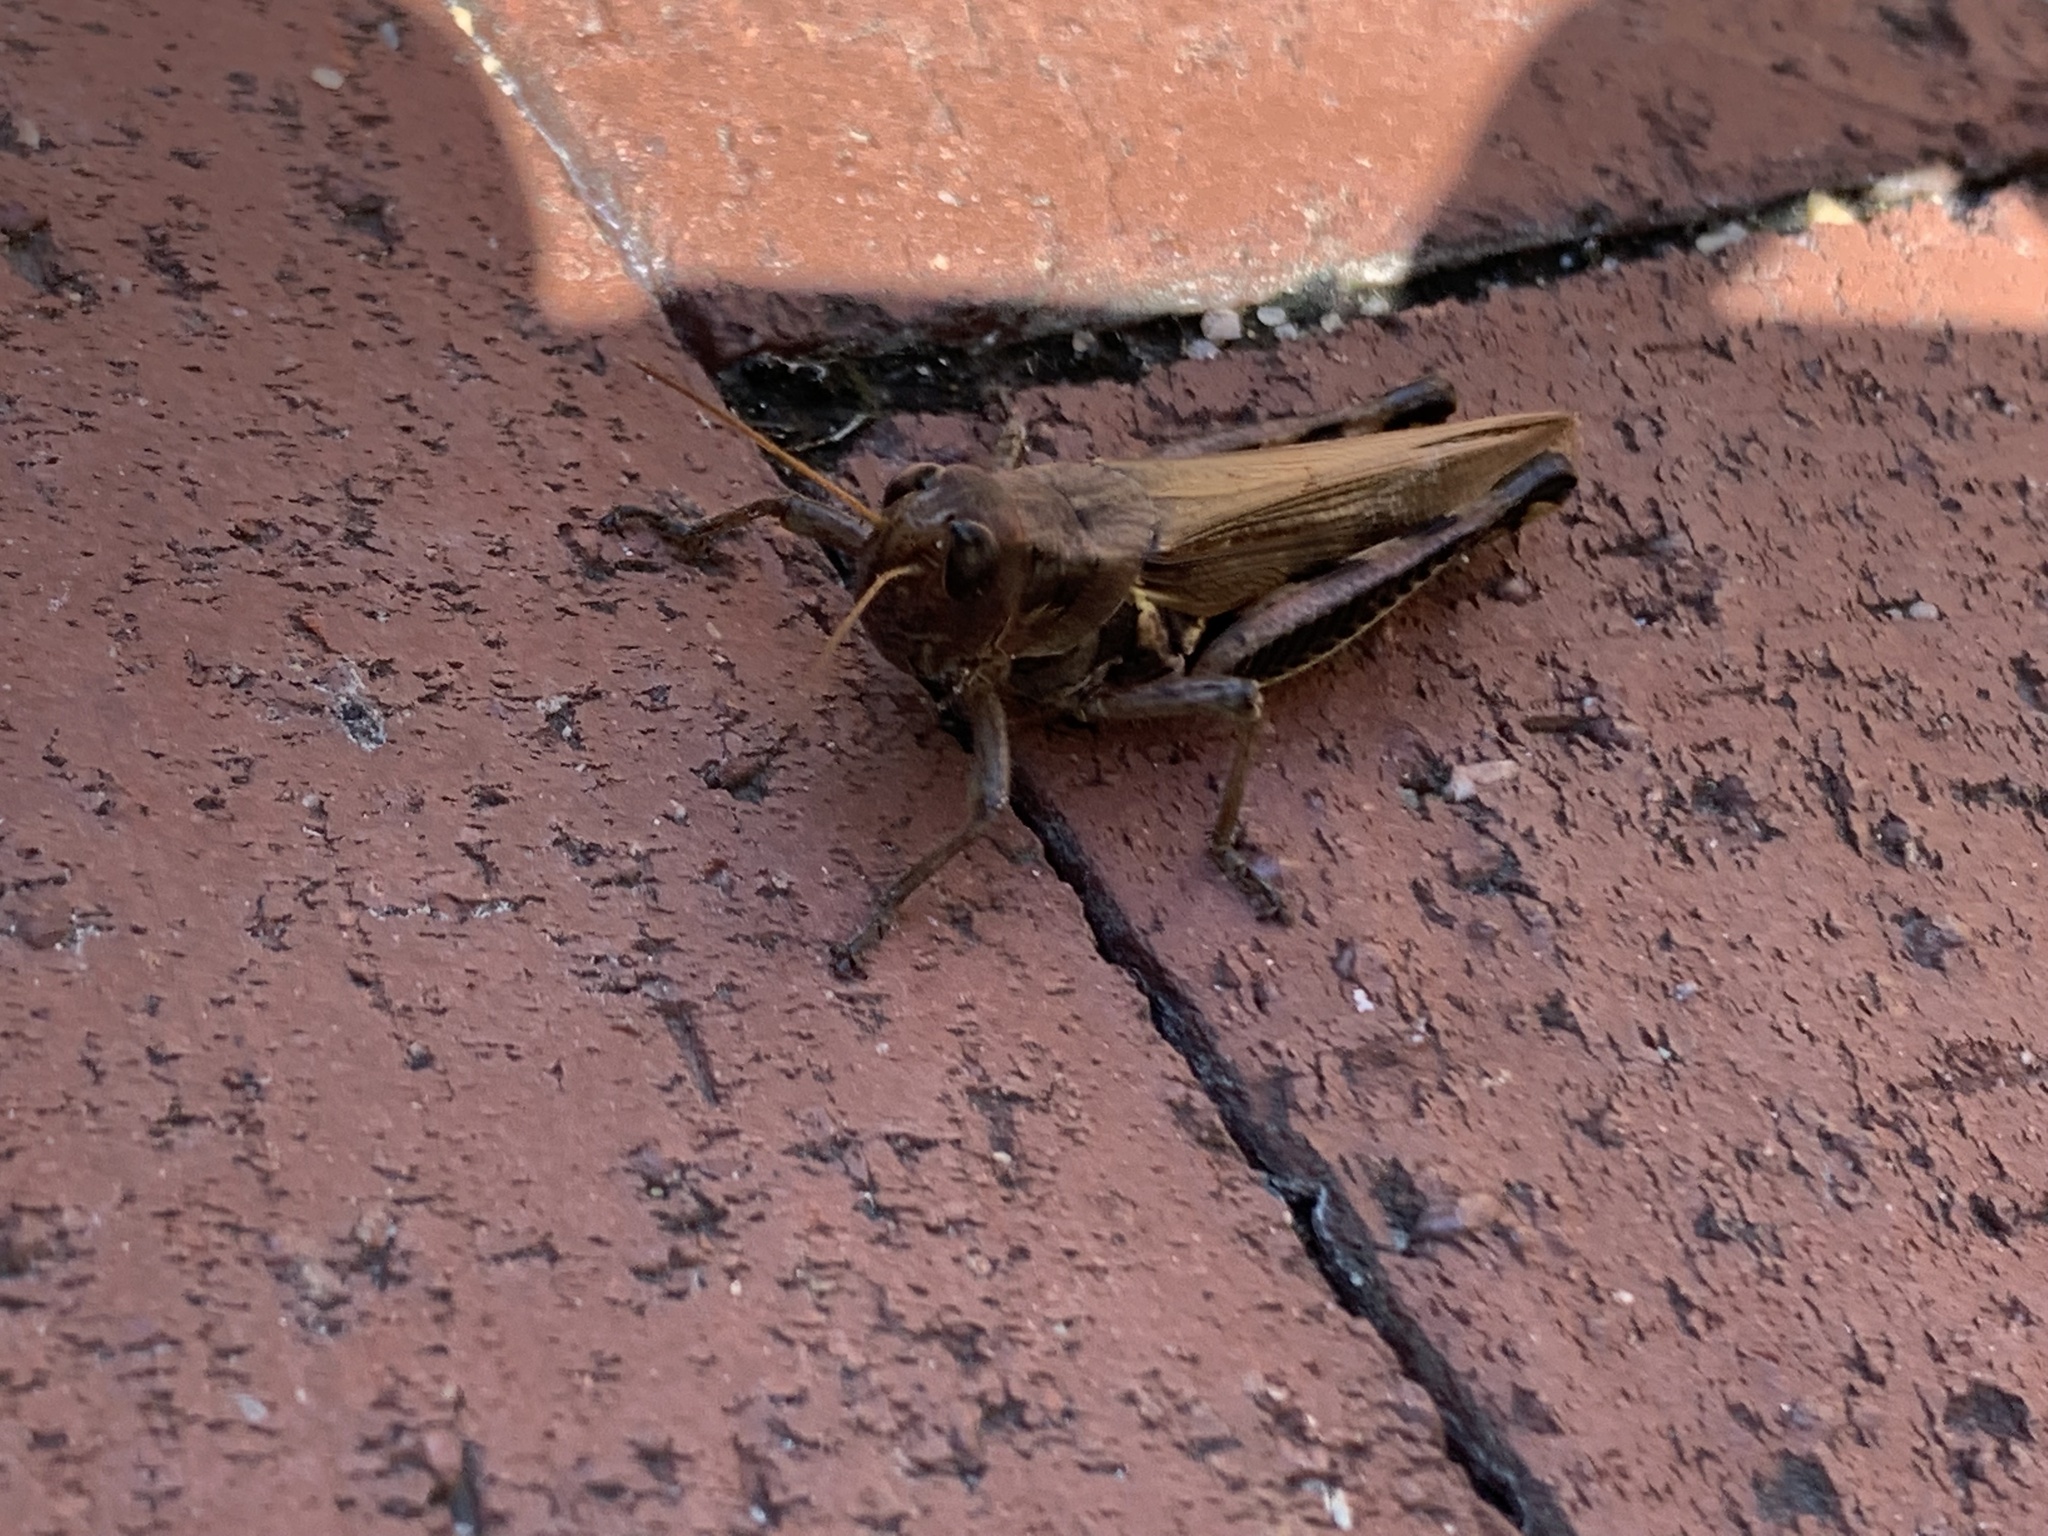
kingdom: Animalia
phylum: Arthropoda
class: Insecta
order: Orthoptera
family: Acrididae
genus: Melanoplus
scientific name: Melanoplus differentialis
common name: Differential grasshopper
